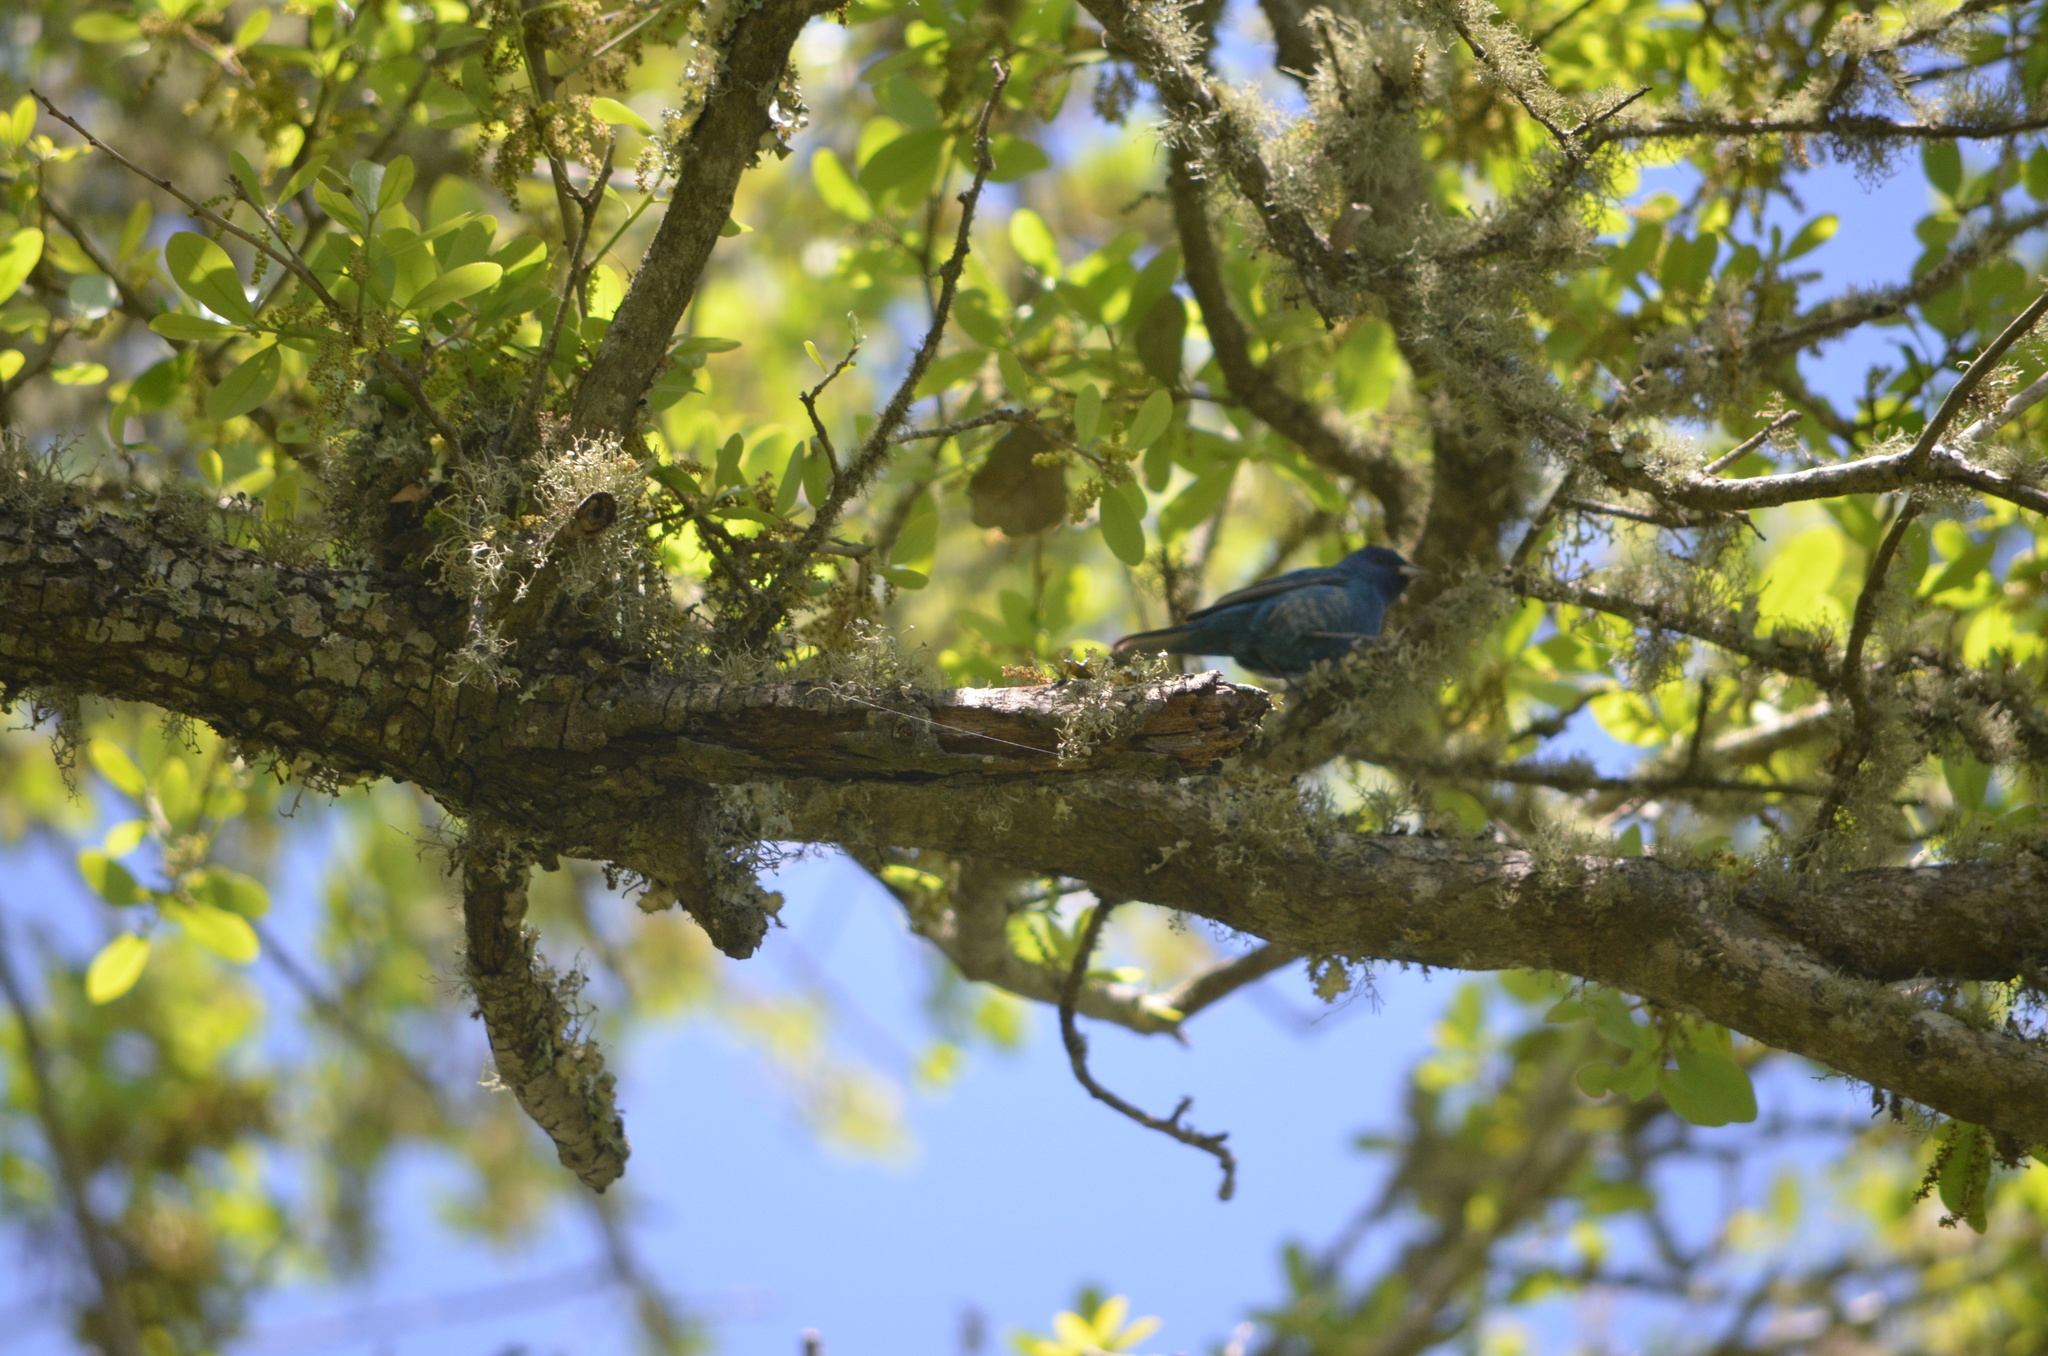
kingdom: Animalia
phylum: Chordata
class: Aves
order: Passeriformes
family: Cardinalidae
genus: Passerina
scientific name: Passerina cyanea
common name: Indigo bunting
